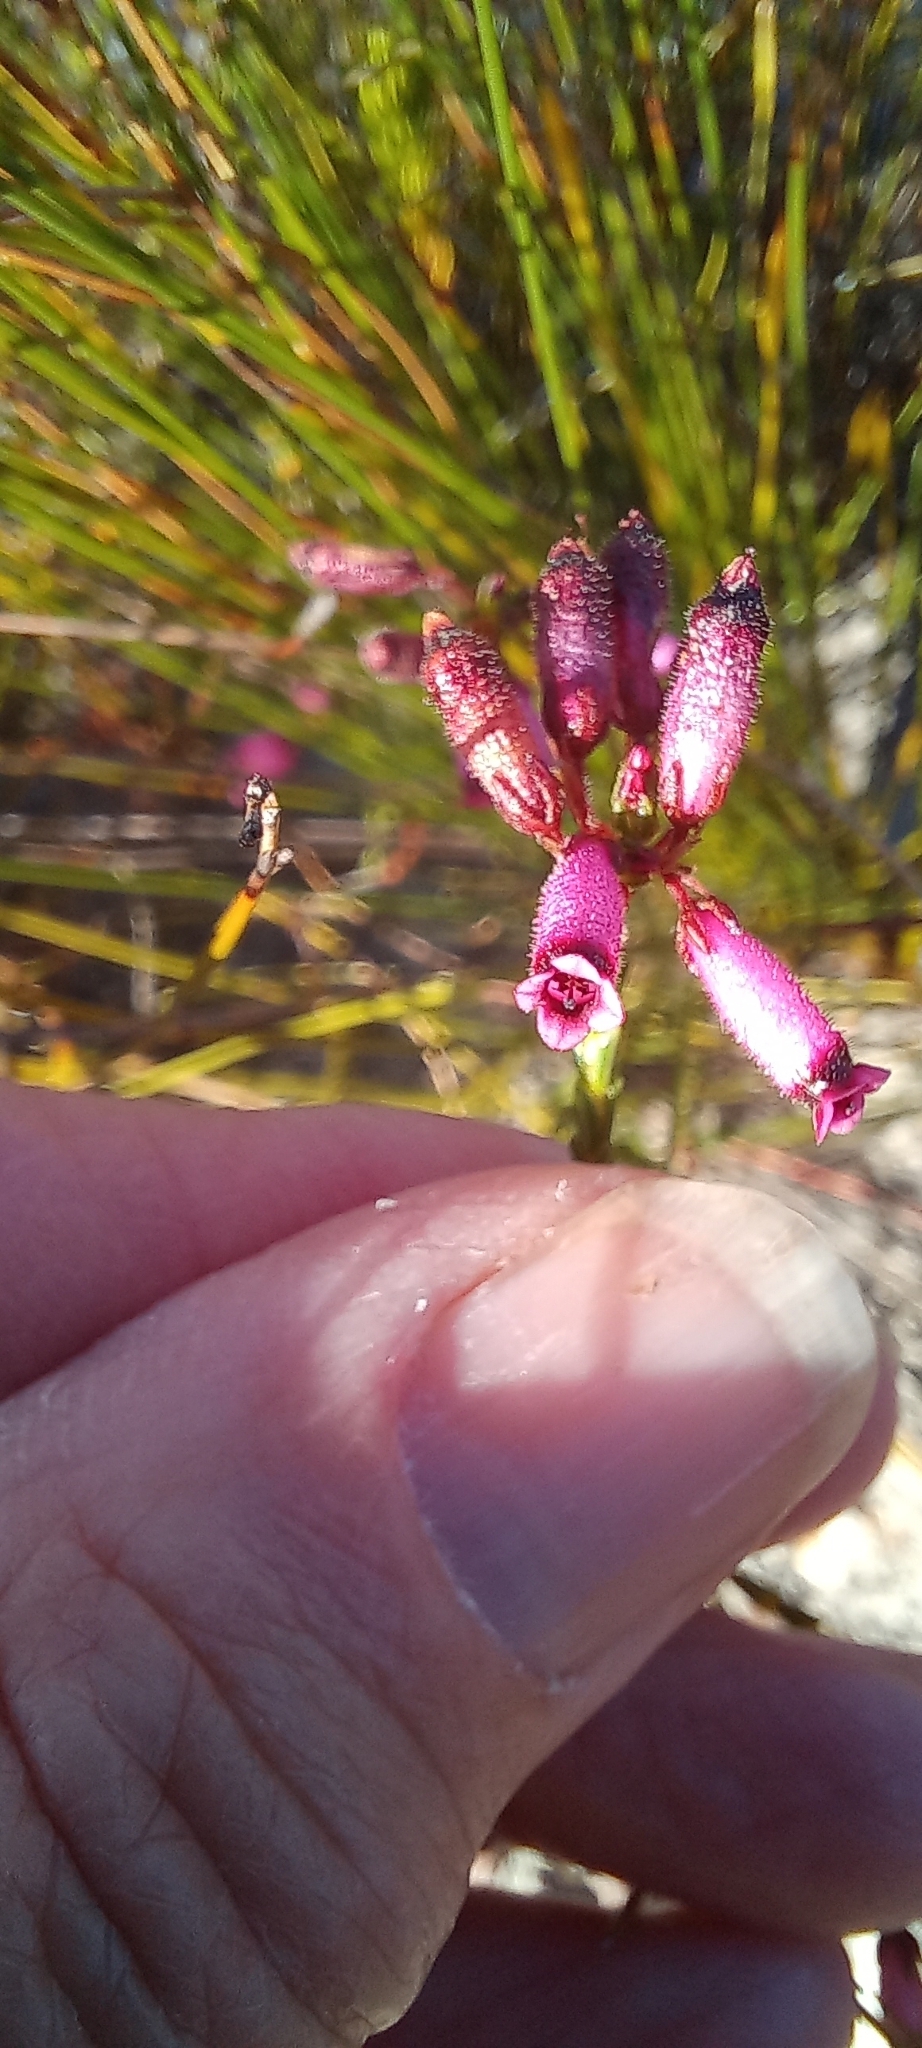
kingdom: Plantae
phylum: Tracheophyta
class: Magnoliopsida
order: Ericales
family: Ericaceae
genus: Erica
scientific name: Erica cristata
